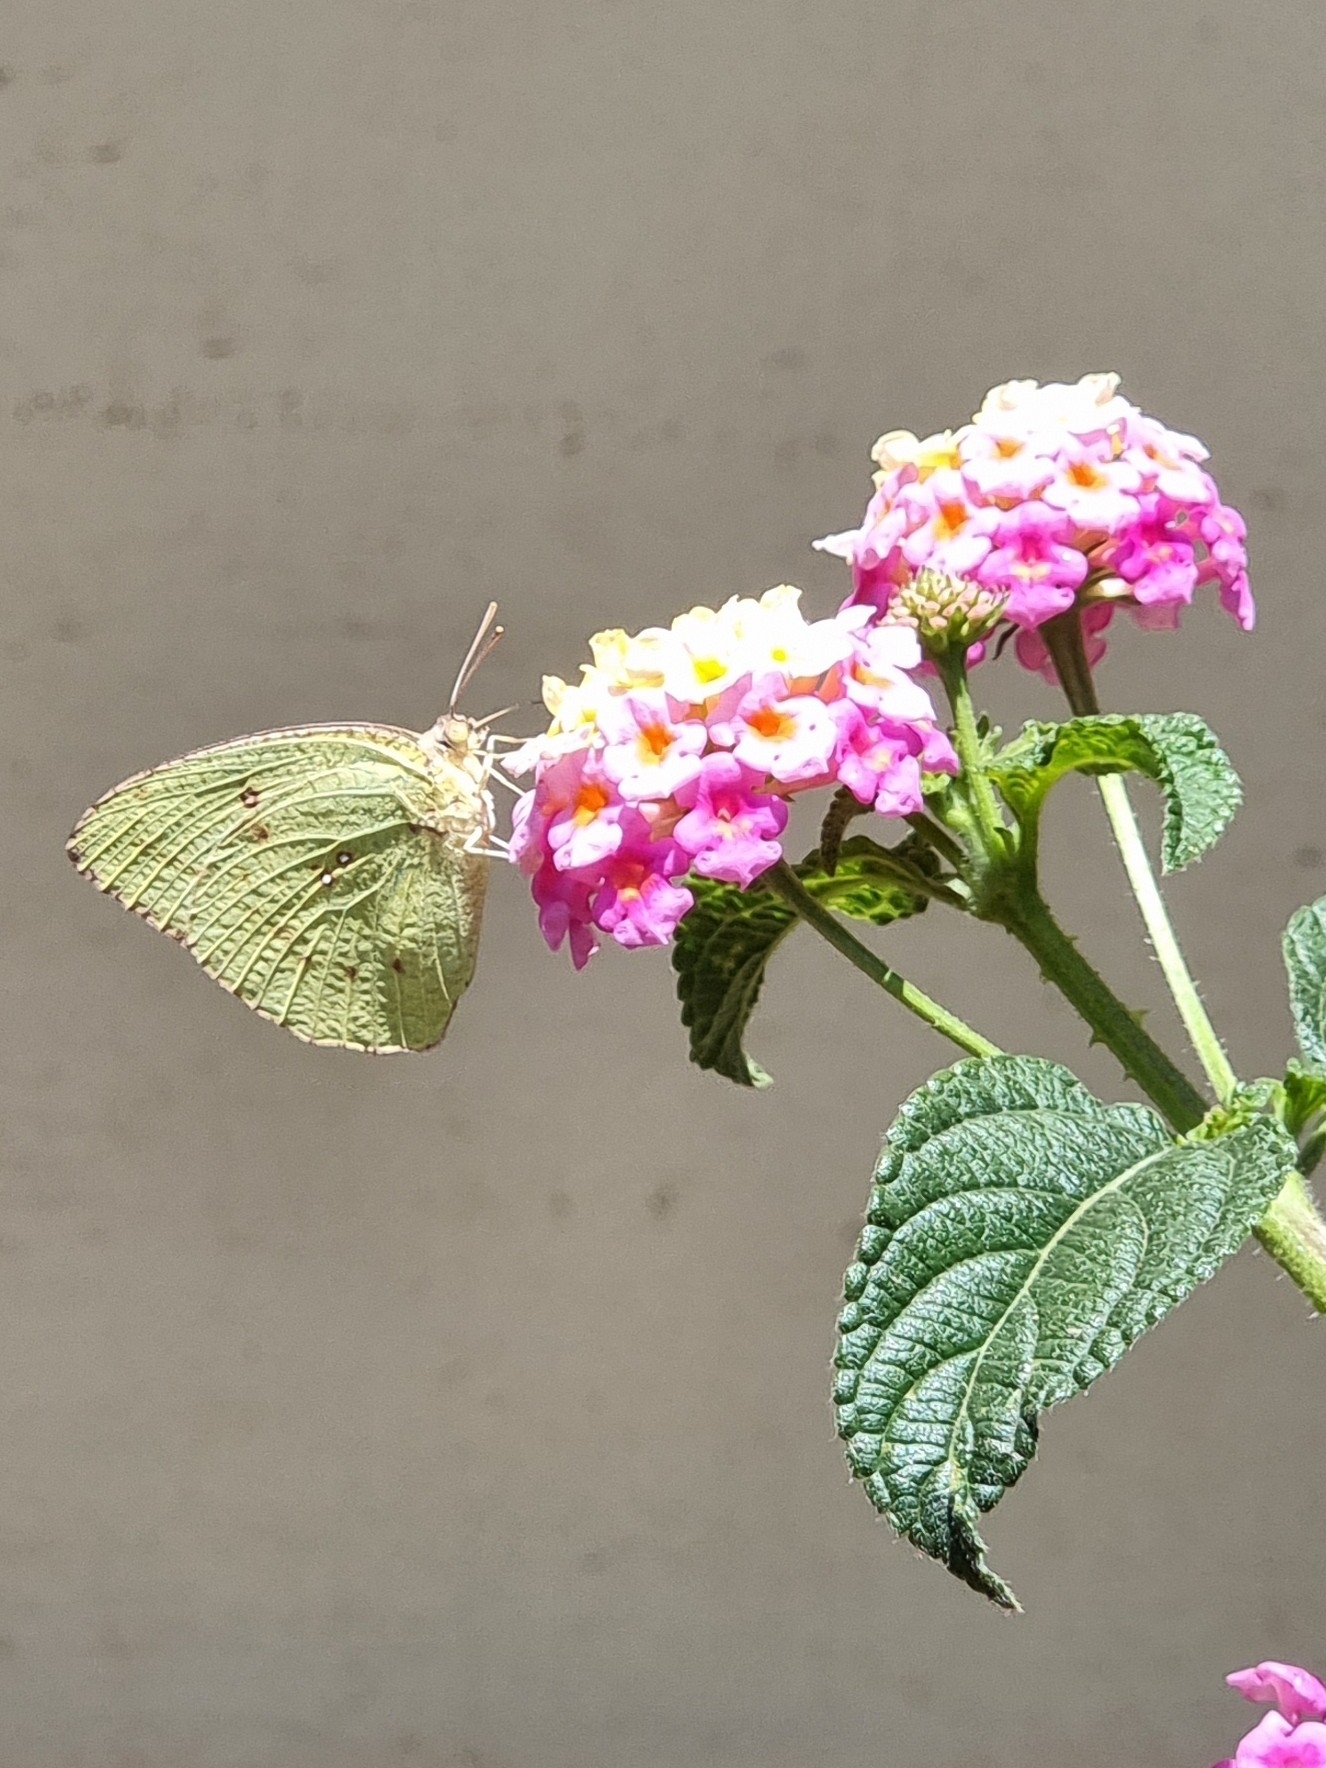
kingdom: Animalia
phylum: Arthropoda
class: Insecta
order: Lepidoptera
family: Pieridae
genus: Catopsilia
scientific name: Catopsilia pyranthe
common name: Mottled emigrant
